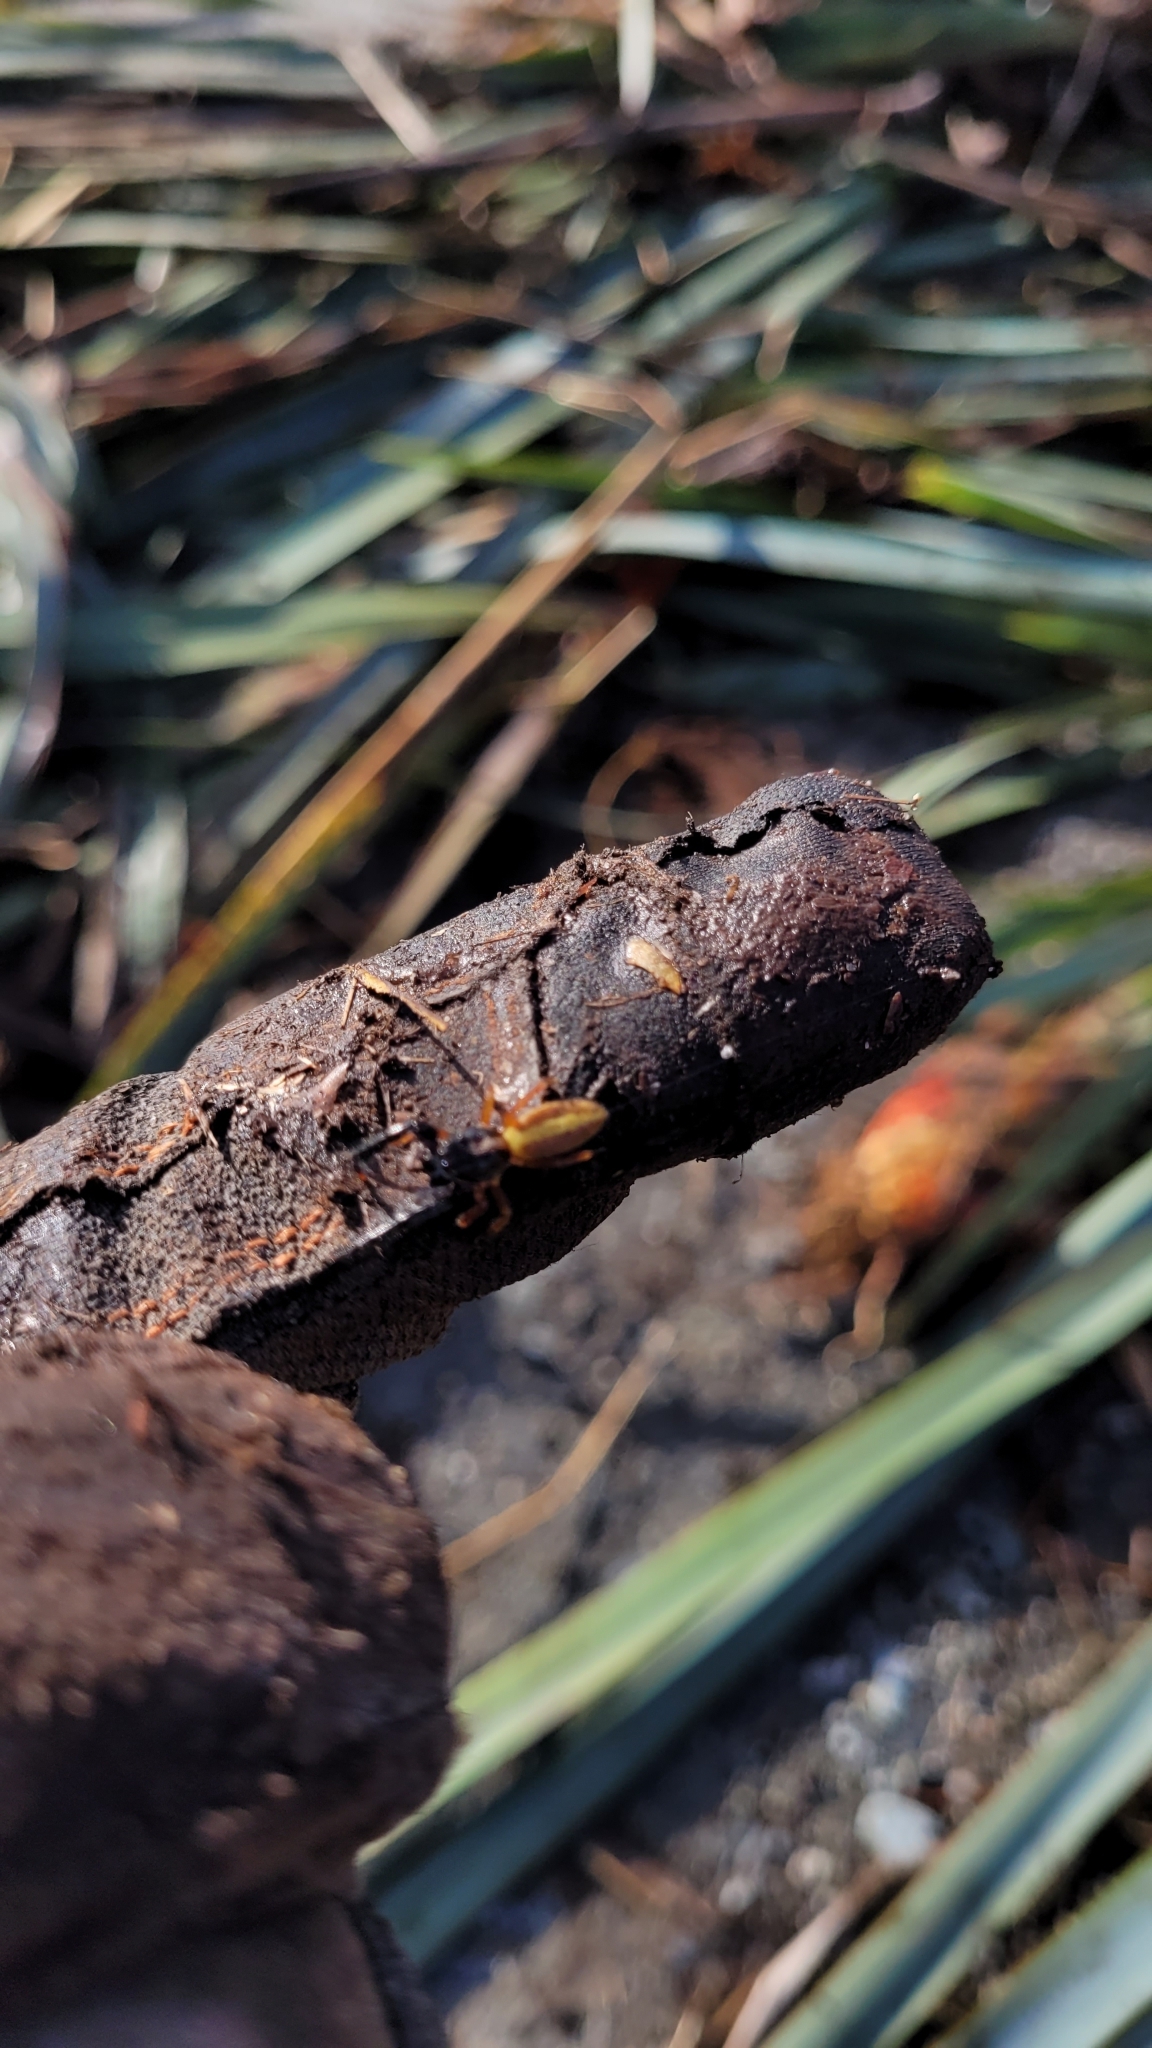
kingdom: Animalia
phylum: Arthropoda
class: Arachnida
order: Araneae
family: Salticidae
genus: Trite
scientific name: Trite planiceps
